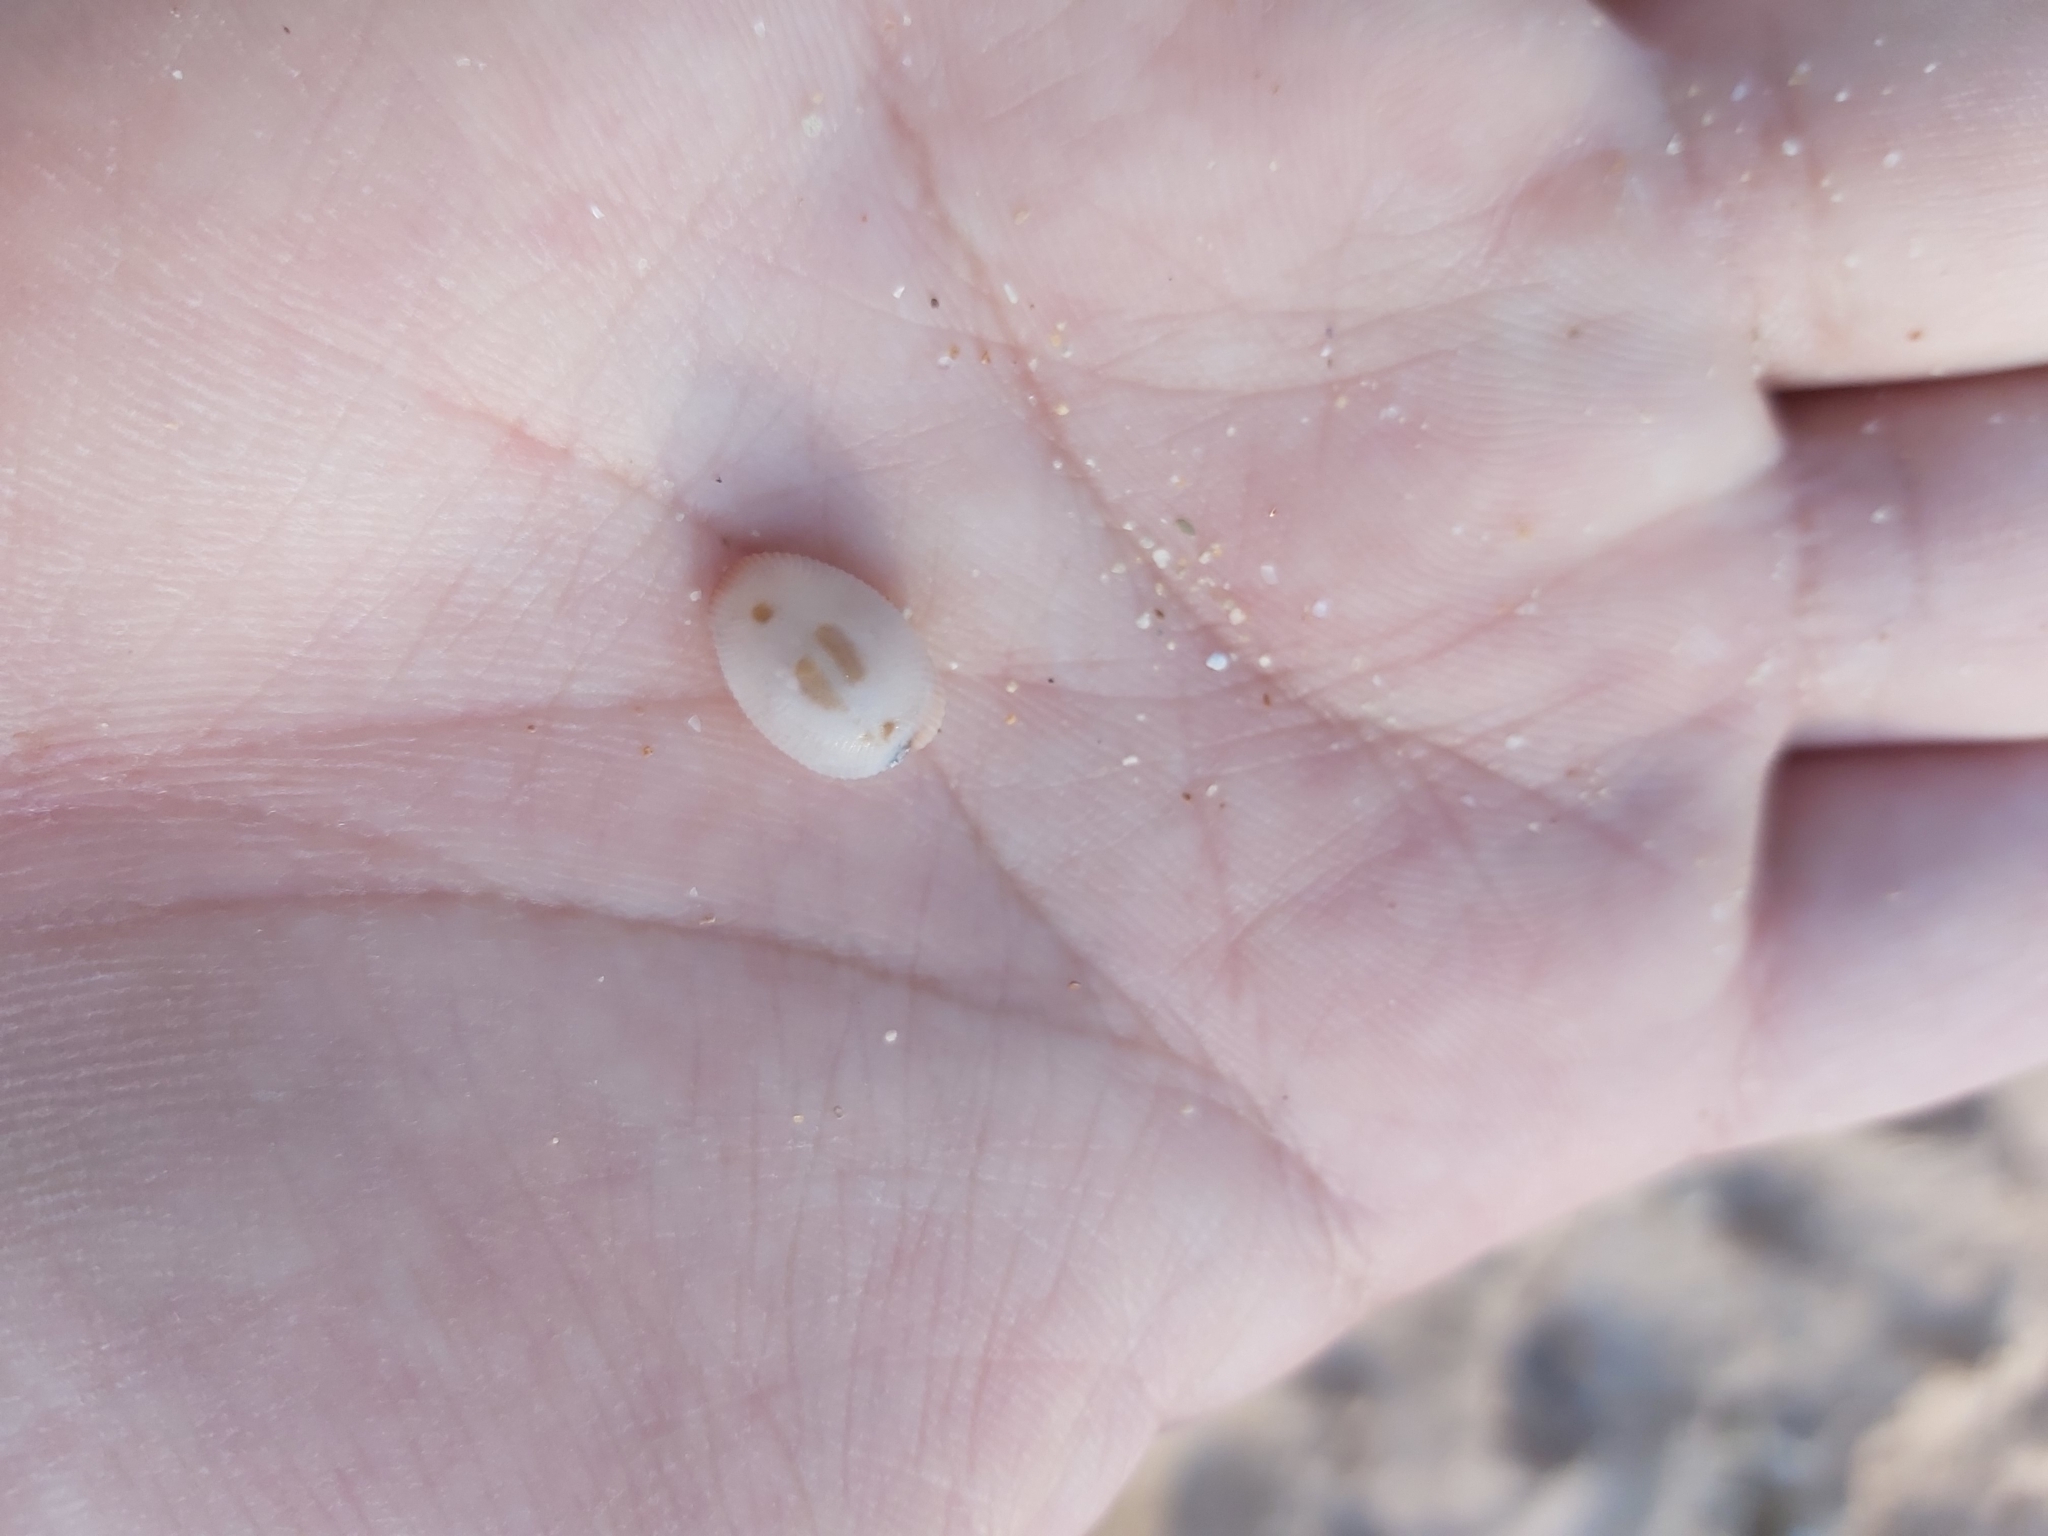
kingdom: Animalia
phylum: Mollusca
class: Gastropoda
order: Littorinimorpha
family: Triviidae
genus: Ellatrivia
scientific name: Ellatrivia merces
